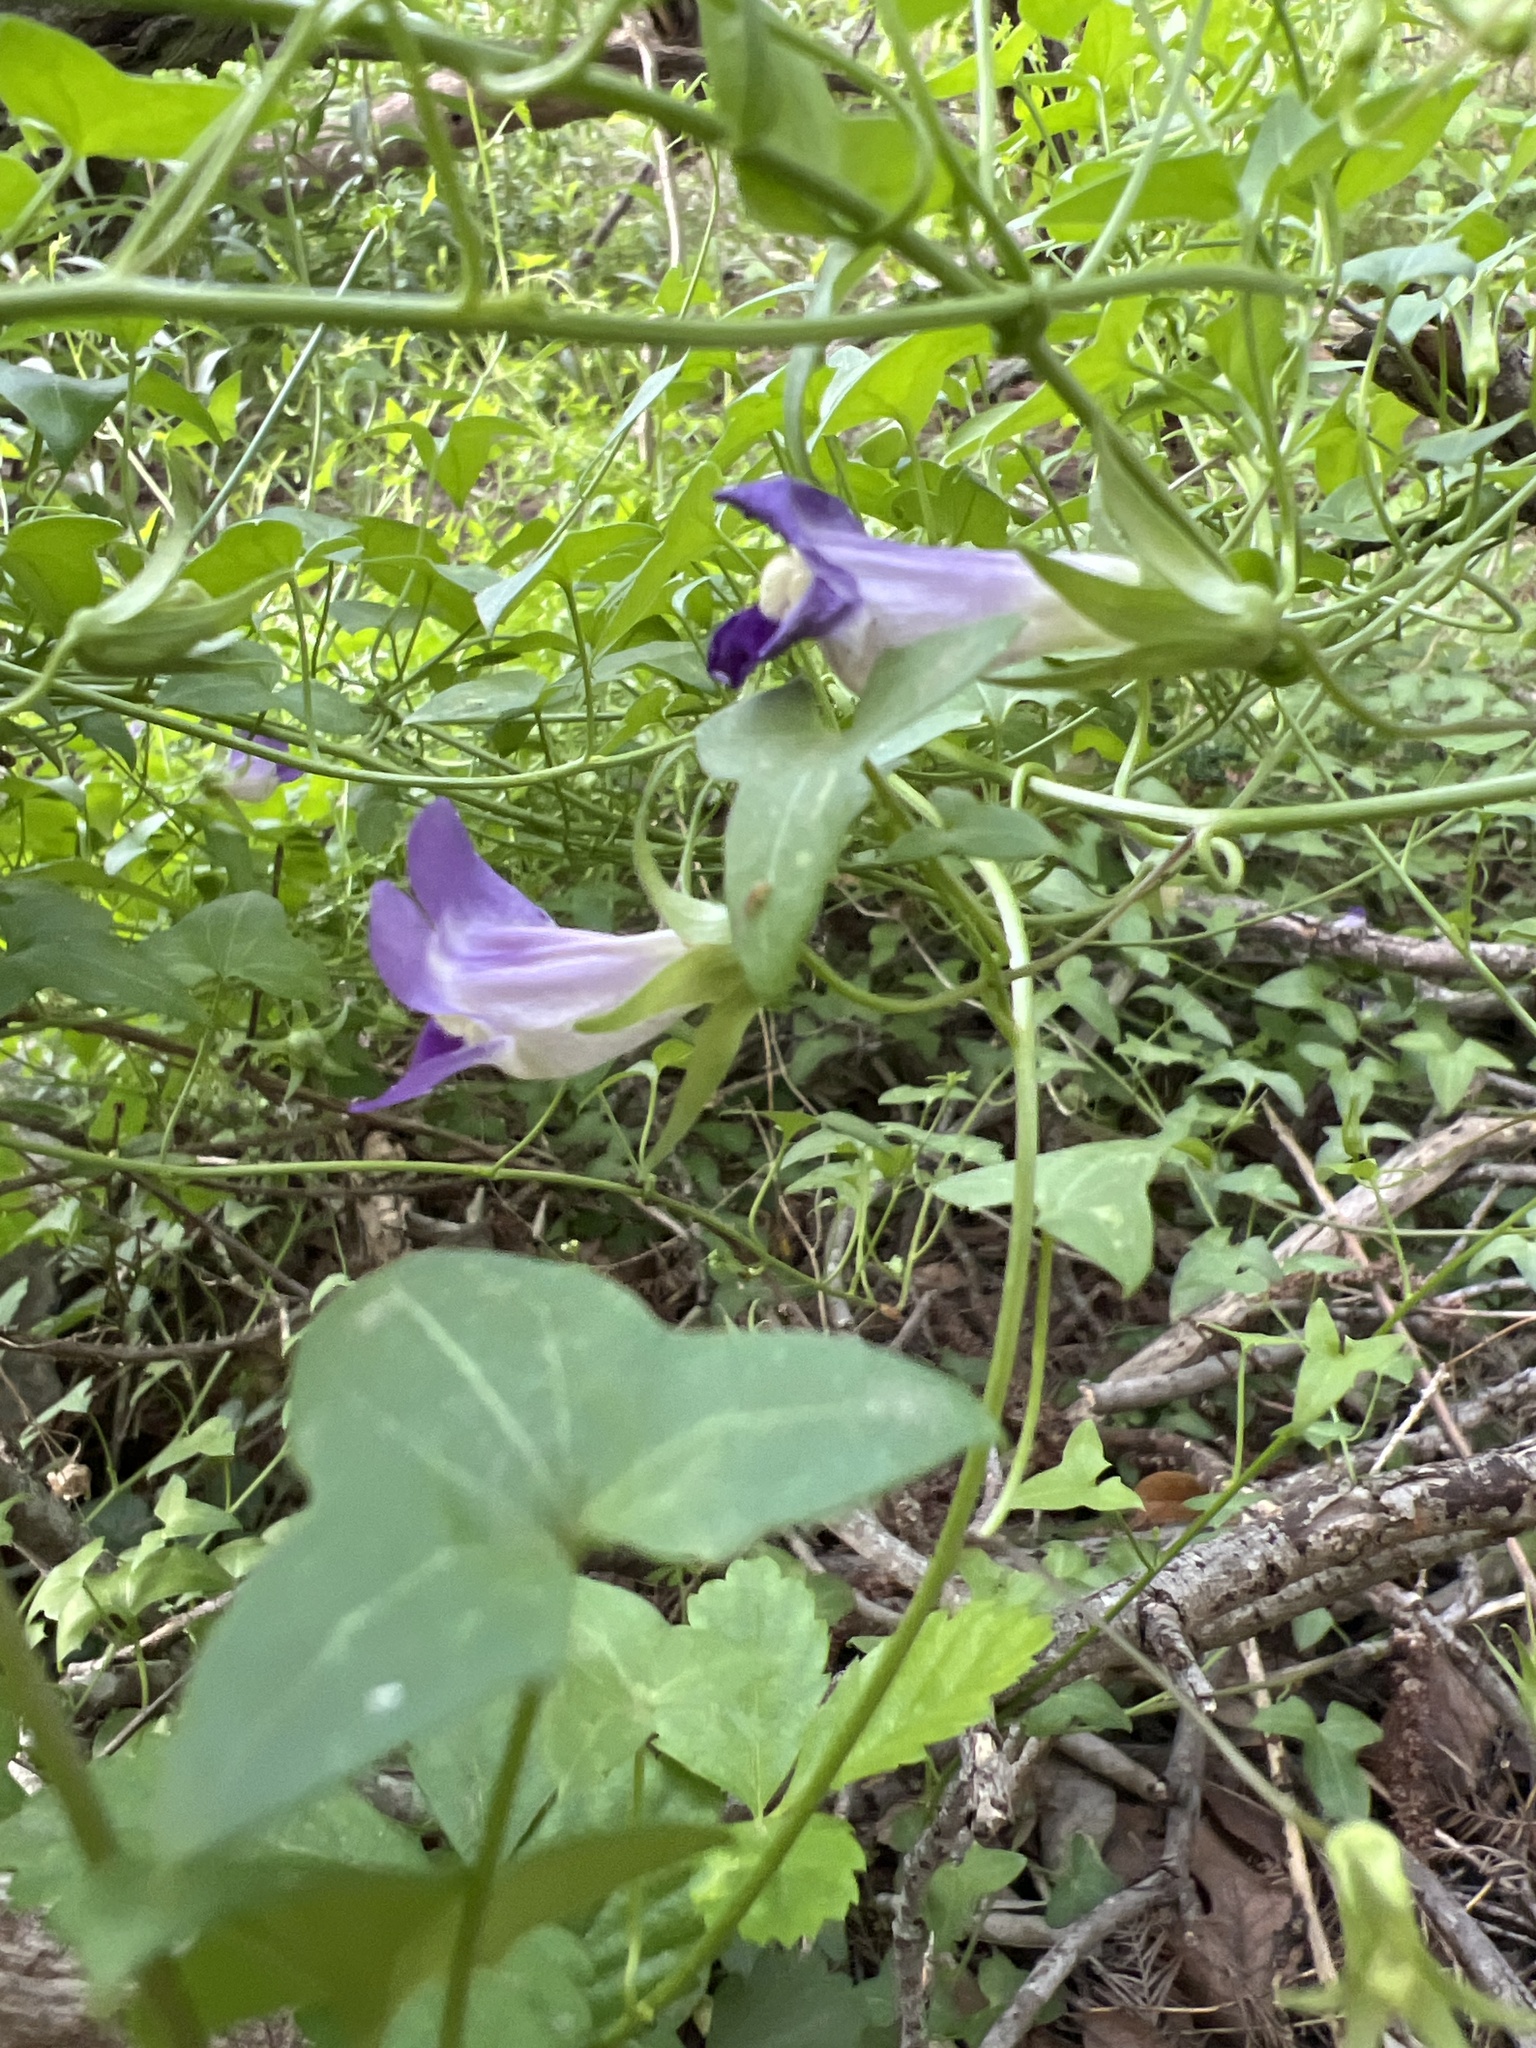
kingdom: Plantae
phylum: Tracheophyta
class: Magnoliopsida
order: Lamiales
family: Plantaginaceae
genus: Maurandella
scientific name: Maurandella antirrhiniflora
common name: Violet twining-snapdragon
